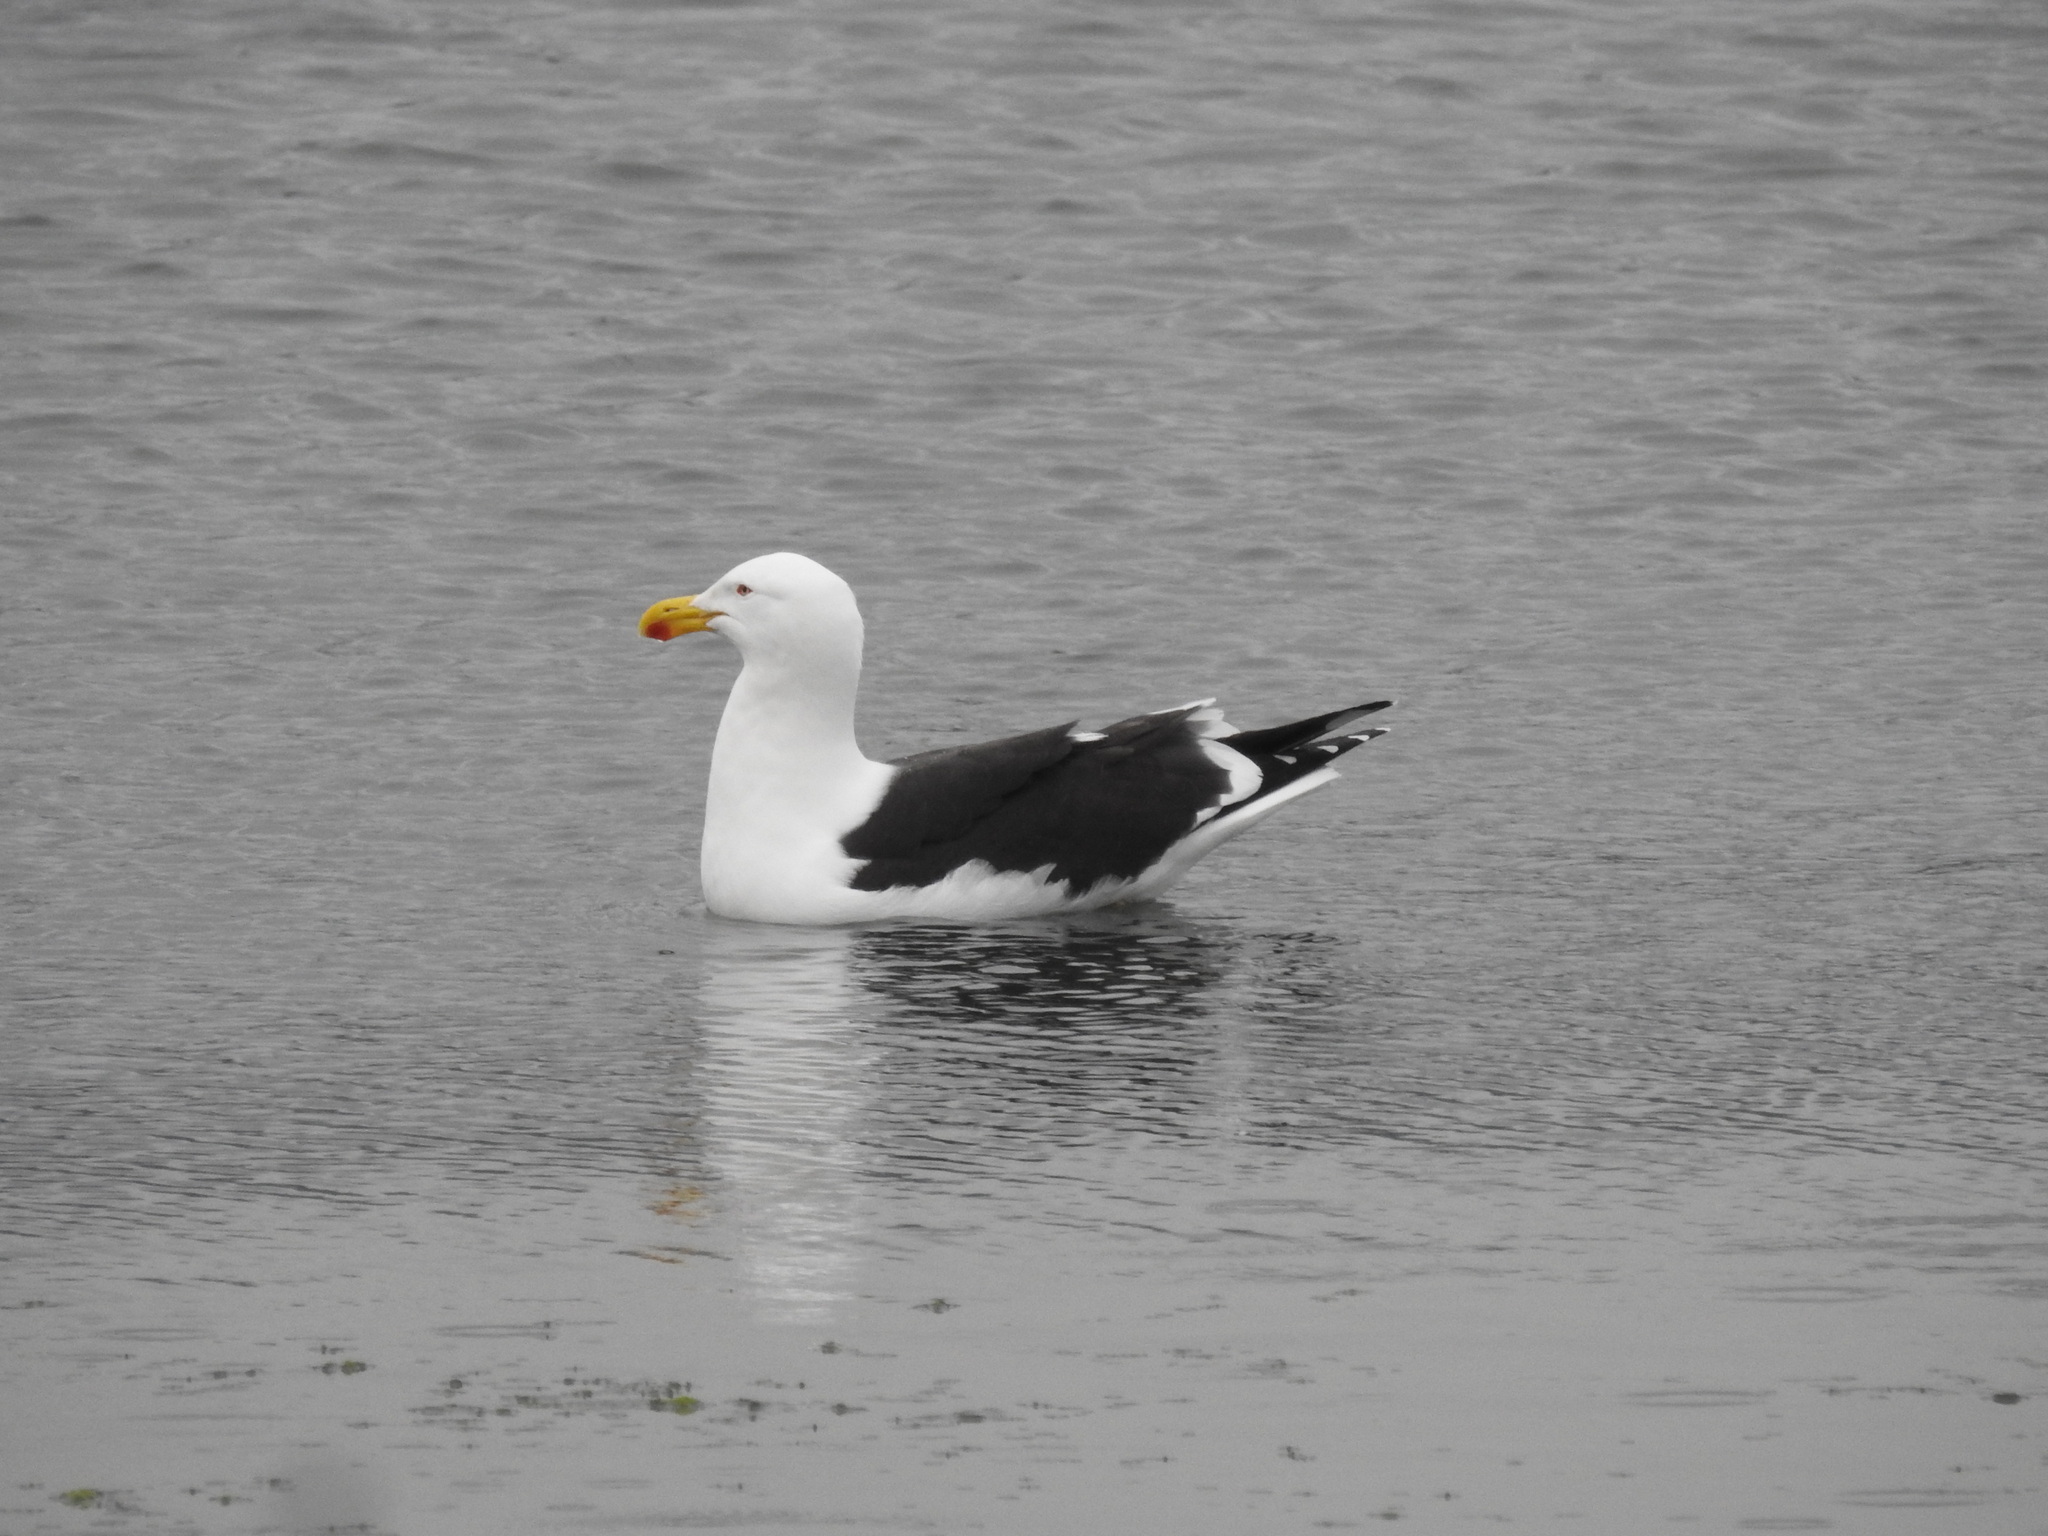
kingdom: Animalia
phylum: Chordata
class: Aves
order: Charadriiformes
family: Laridae
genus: Larus
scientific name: Larus dominicanus
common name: Kelp gull
